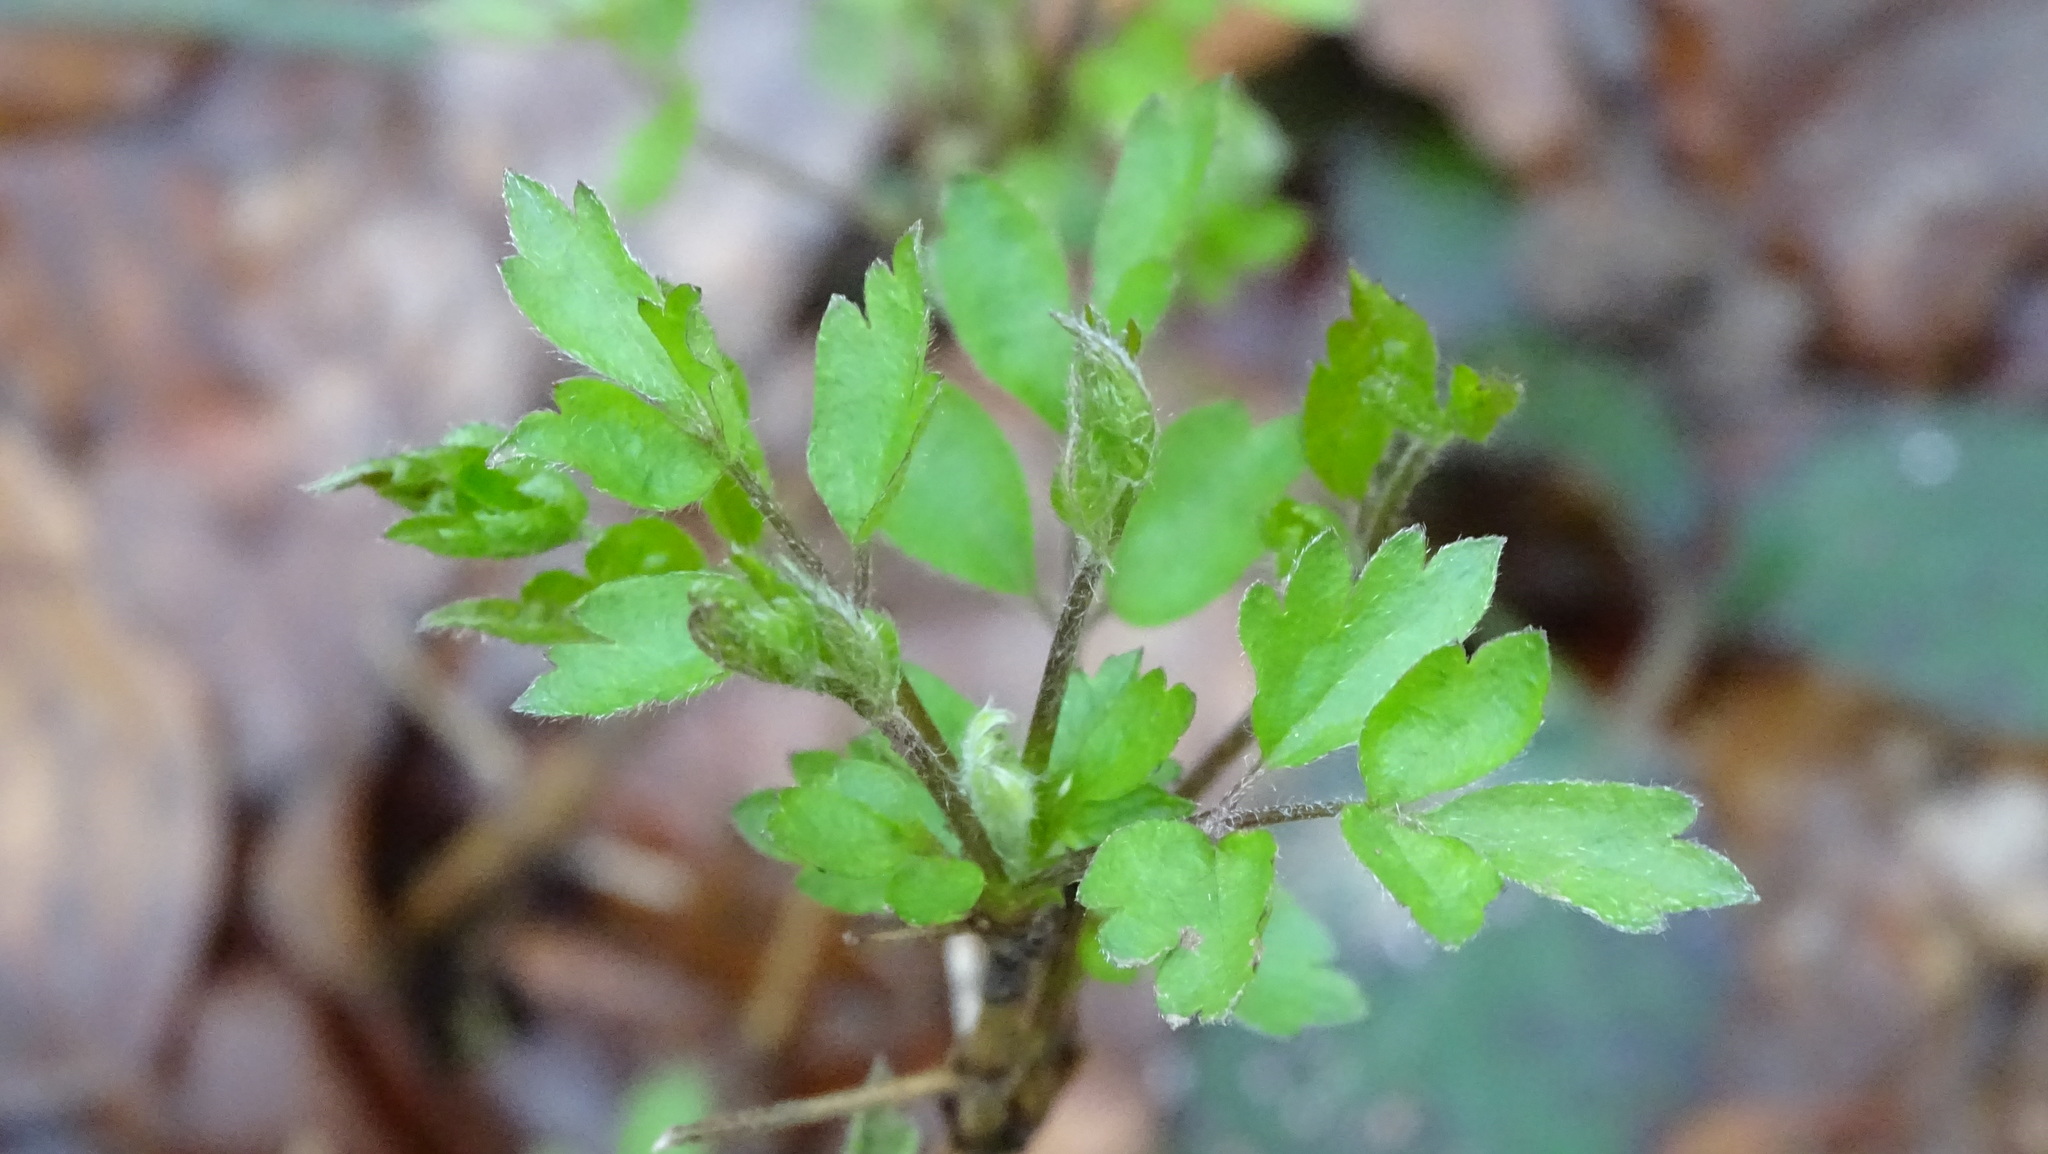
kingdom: Plantae
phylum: Tracheophyta
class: Magnoliopsida
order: Ranunculales
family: Ranunculaceae
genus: Clematis
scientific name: Clematis vitalba
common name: Evergreen clematis
